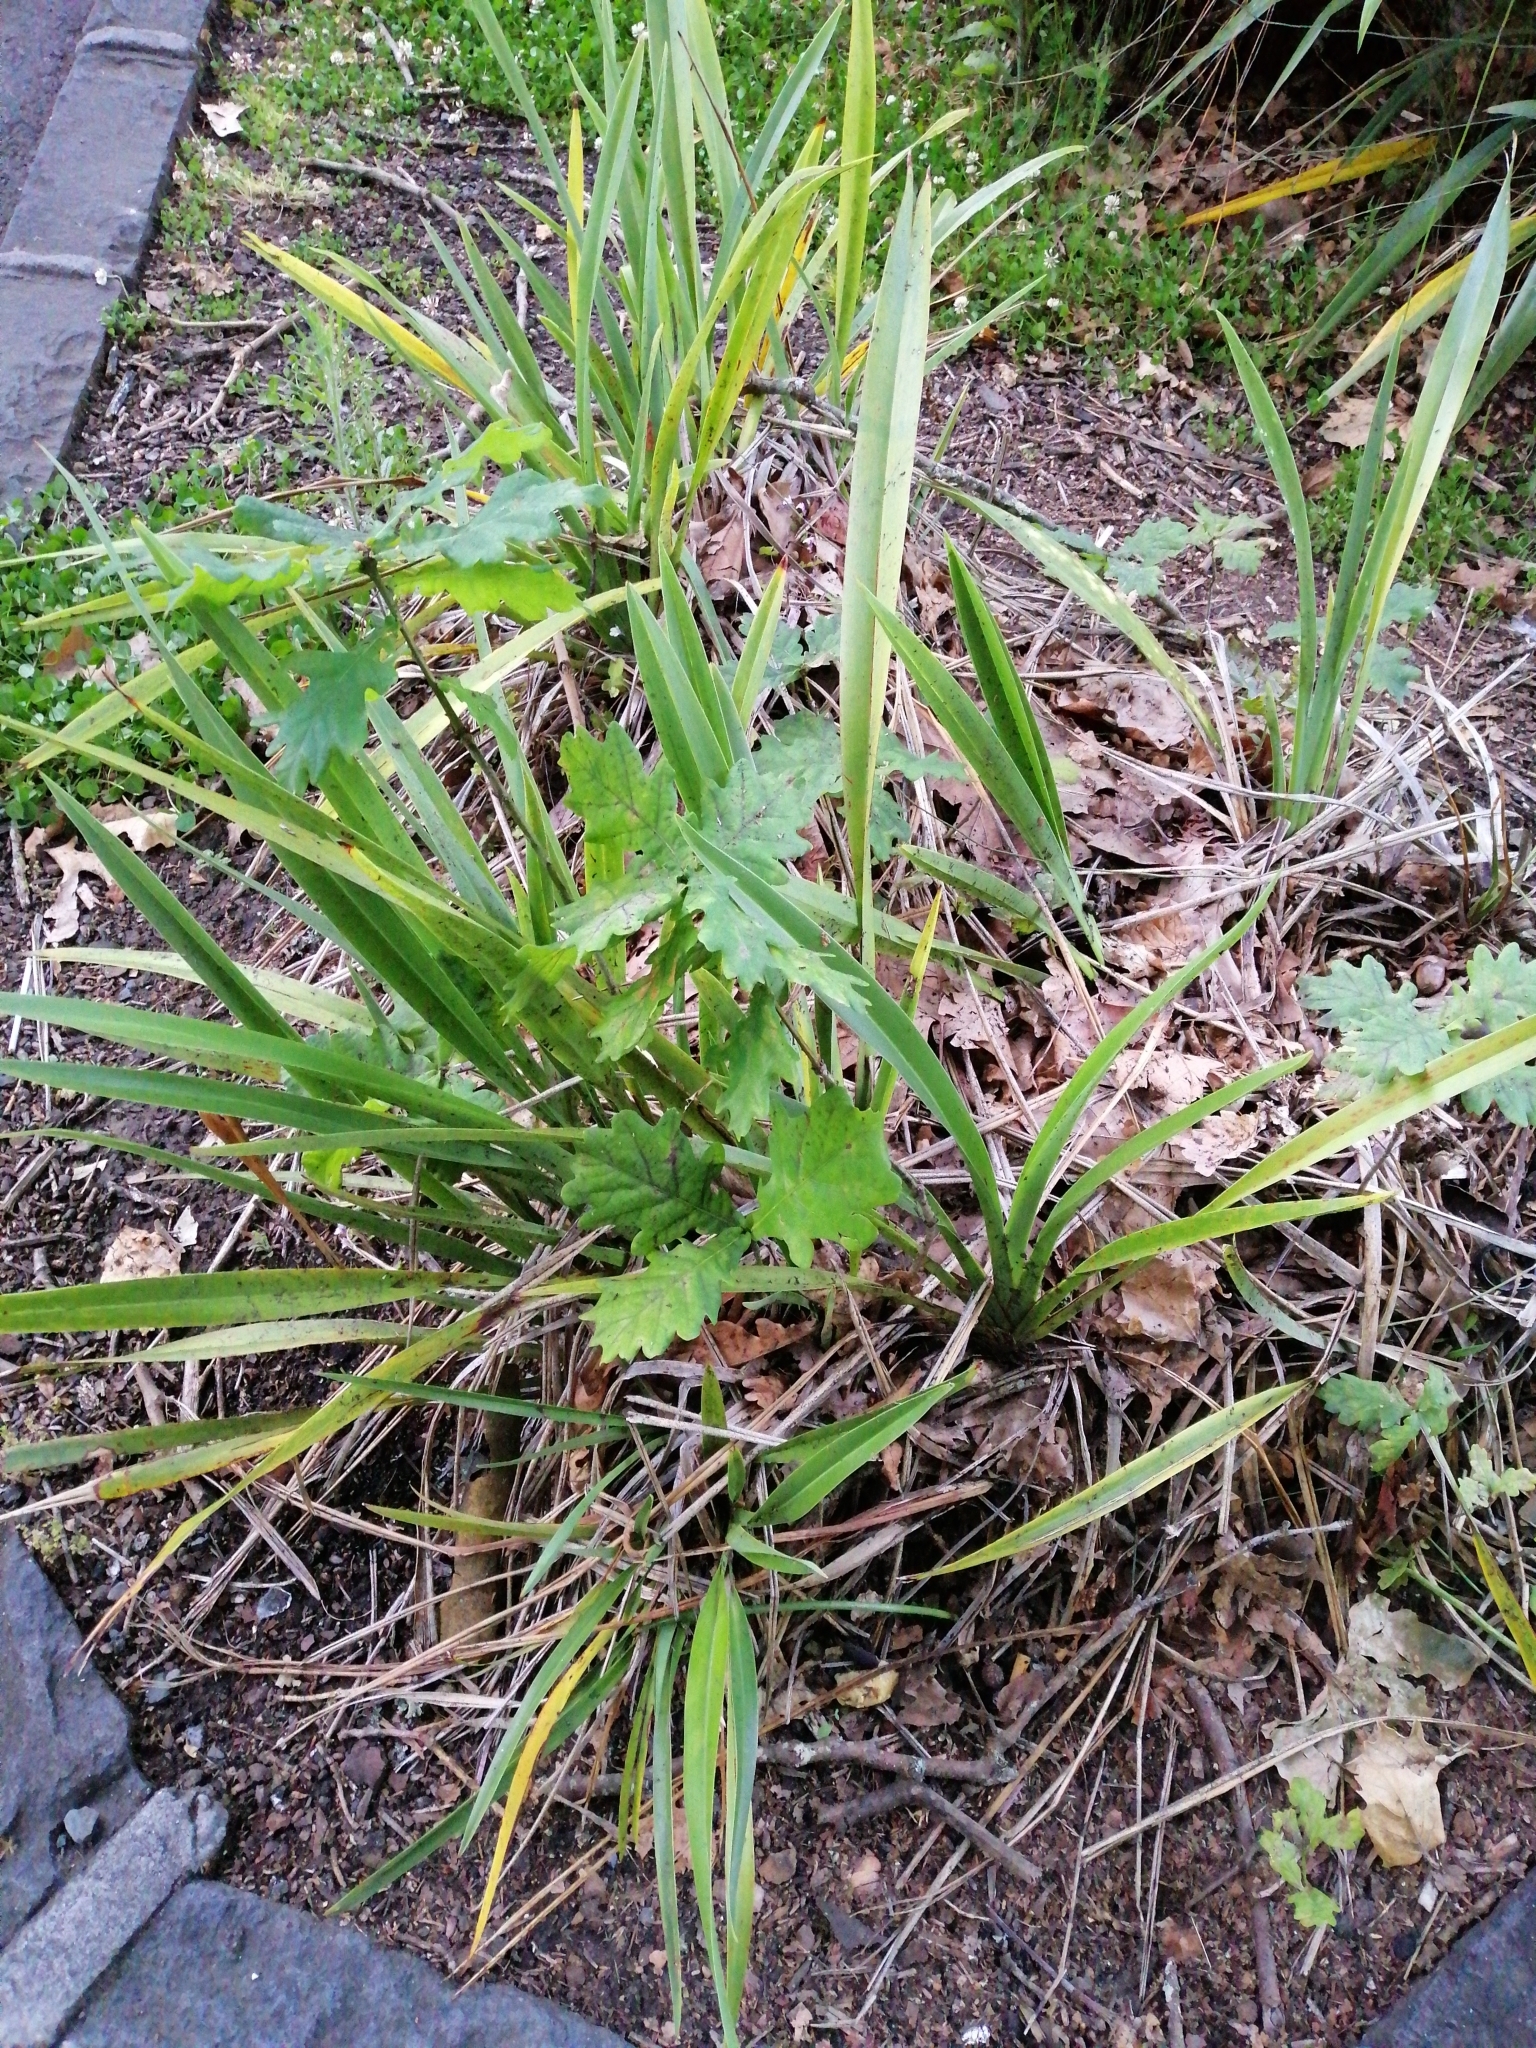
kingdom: Plantae
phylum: Tracheophyta
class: Magnoliopsida
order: Fagales
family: Fagaceae
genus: Quercus
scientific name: Quercus robur
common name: Pedunculate oak
